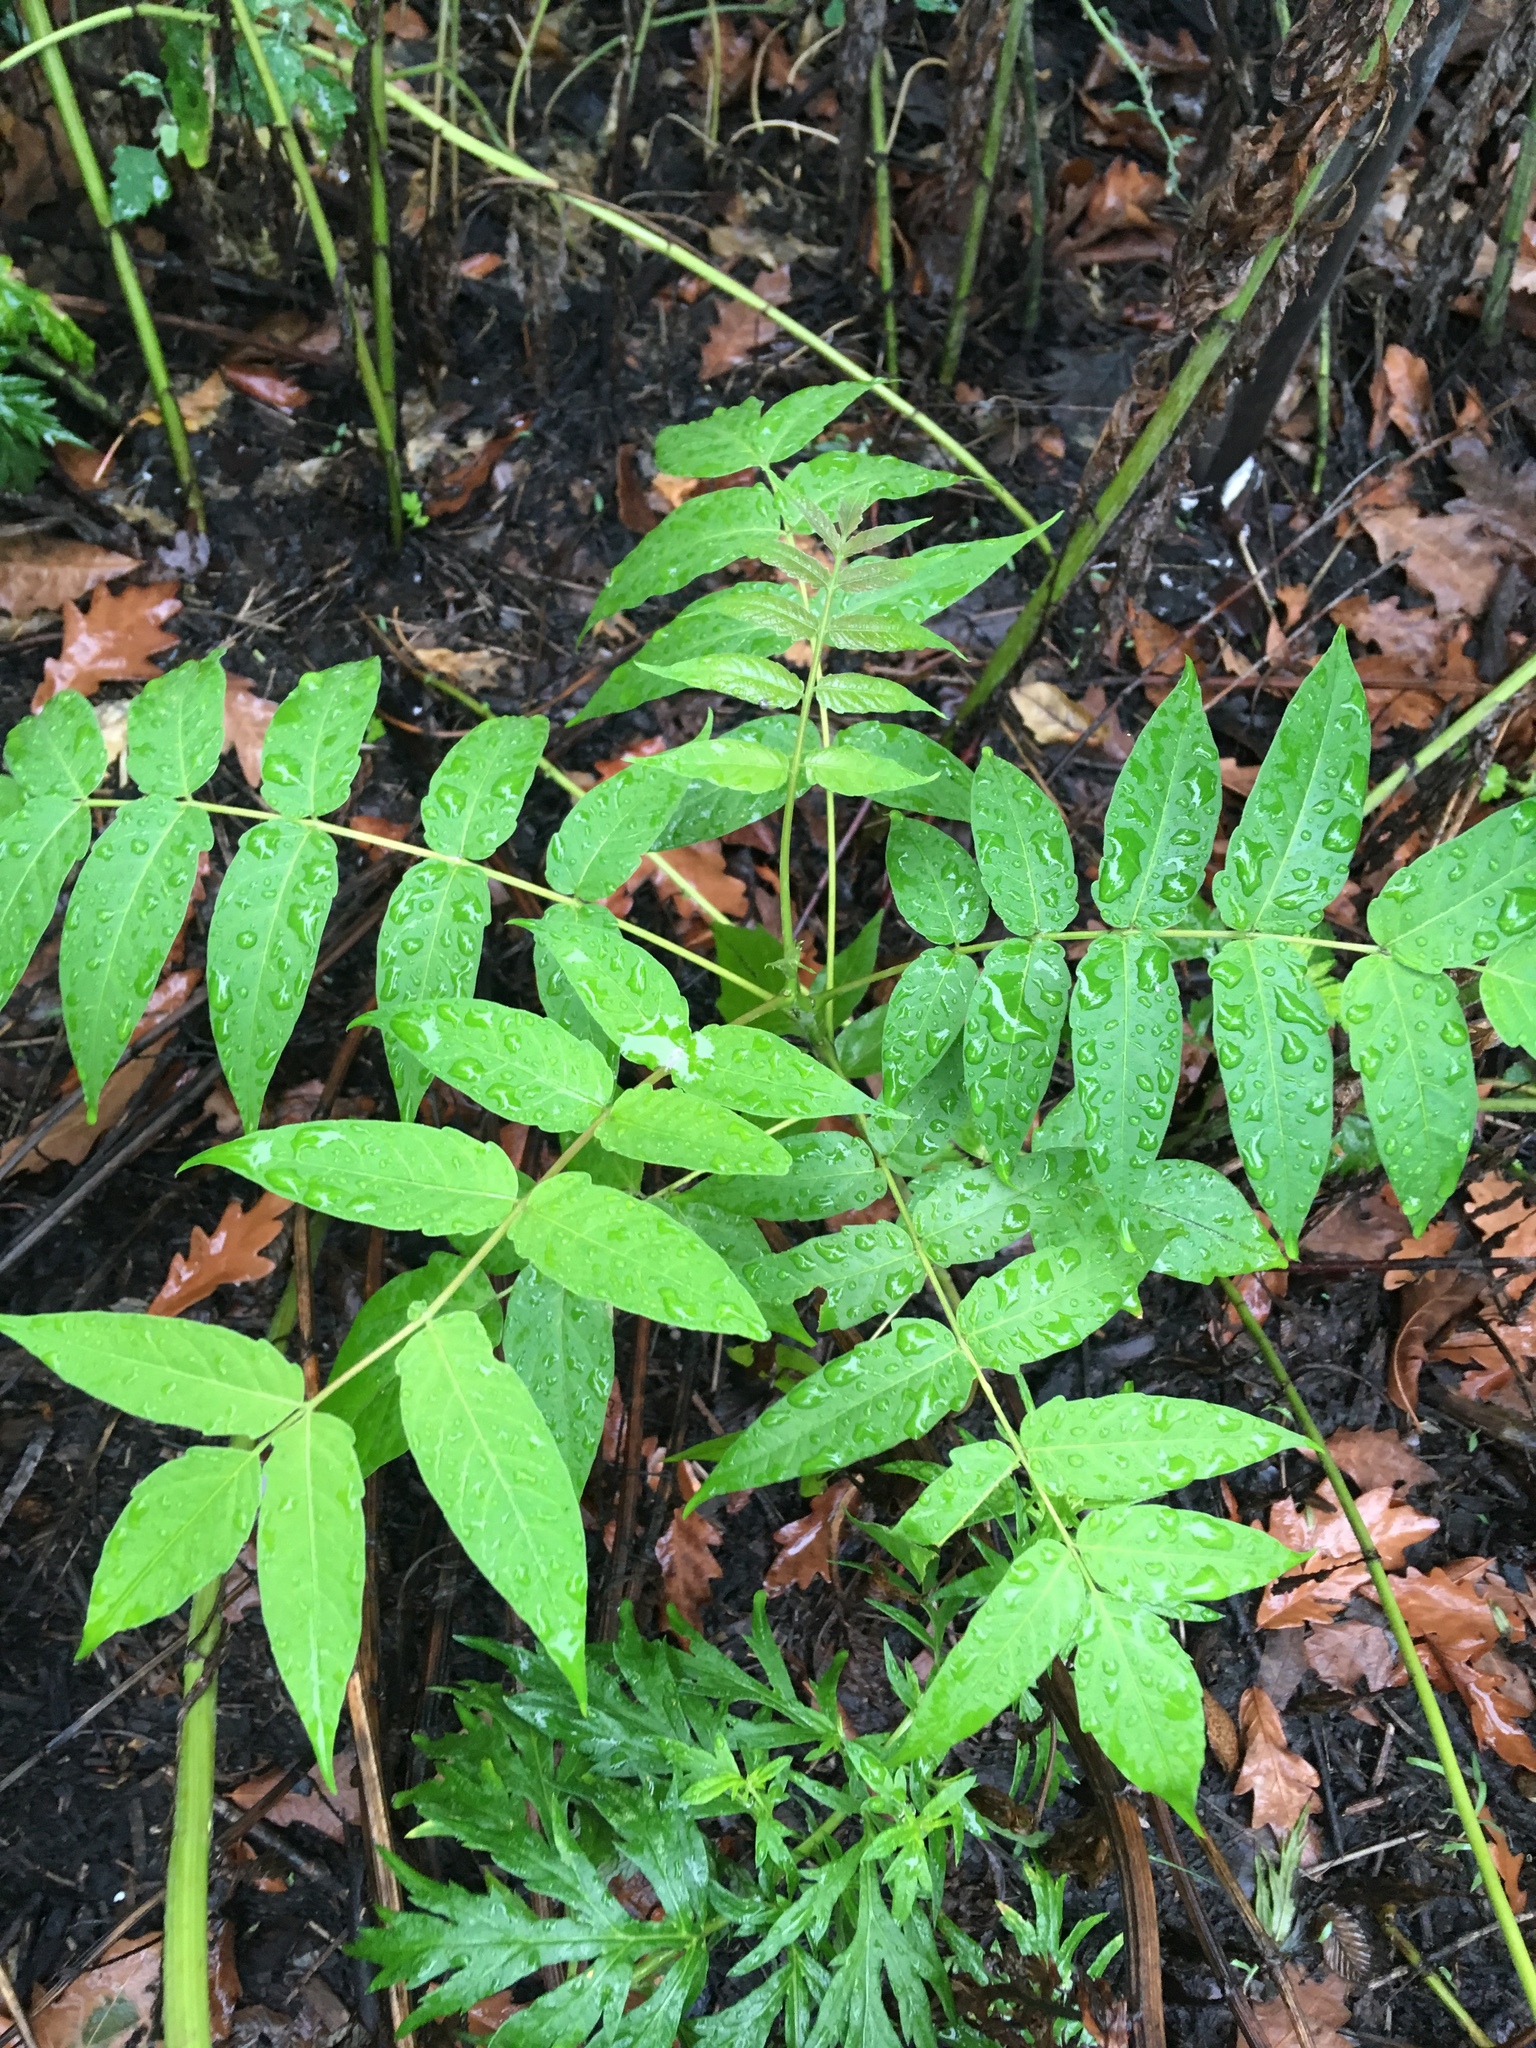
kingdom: Plantae
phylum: Tracheophyta
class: Magnoliopsida
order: Sapindales
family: Simaroubaceae
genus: Ailanthus
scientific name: Ailanthus altissima
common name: Tree-of-heaven
